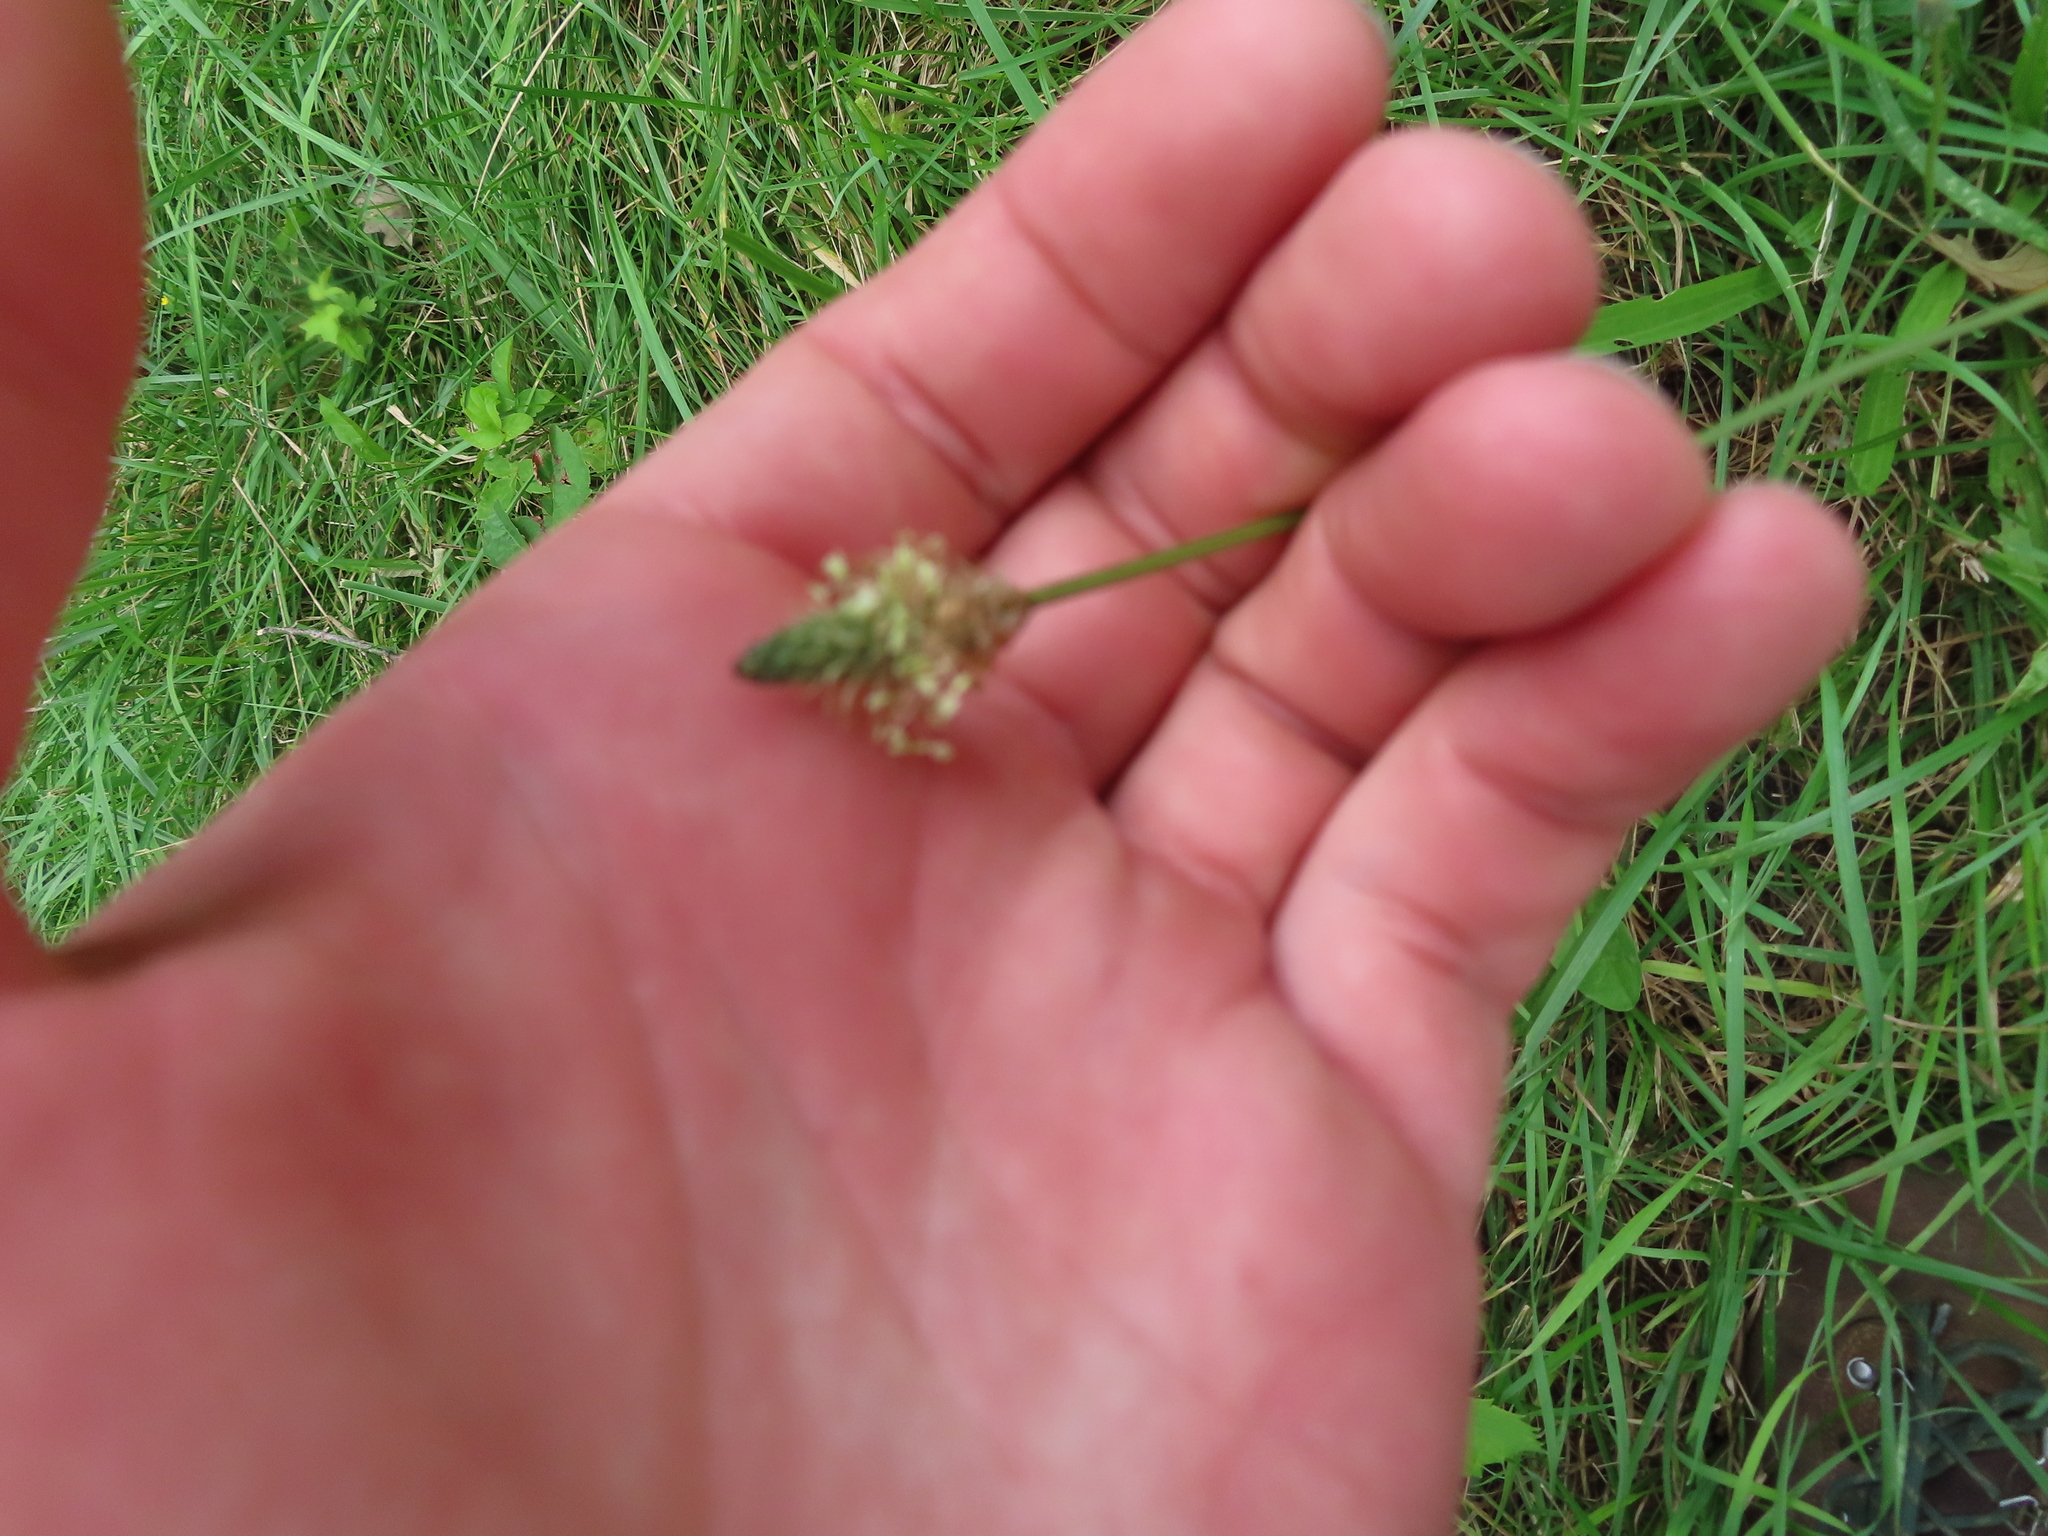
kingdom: Plantae
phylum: Tracheophyta
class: Magnoliopsida
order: Lamiales
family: Plantaginaceae
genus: Plantago
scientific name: Plantago lanceolata
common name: Ribwort plantain
